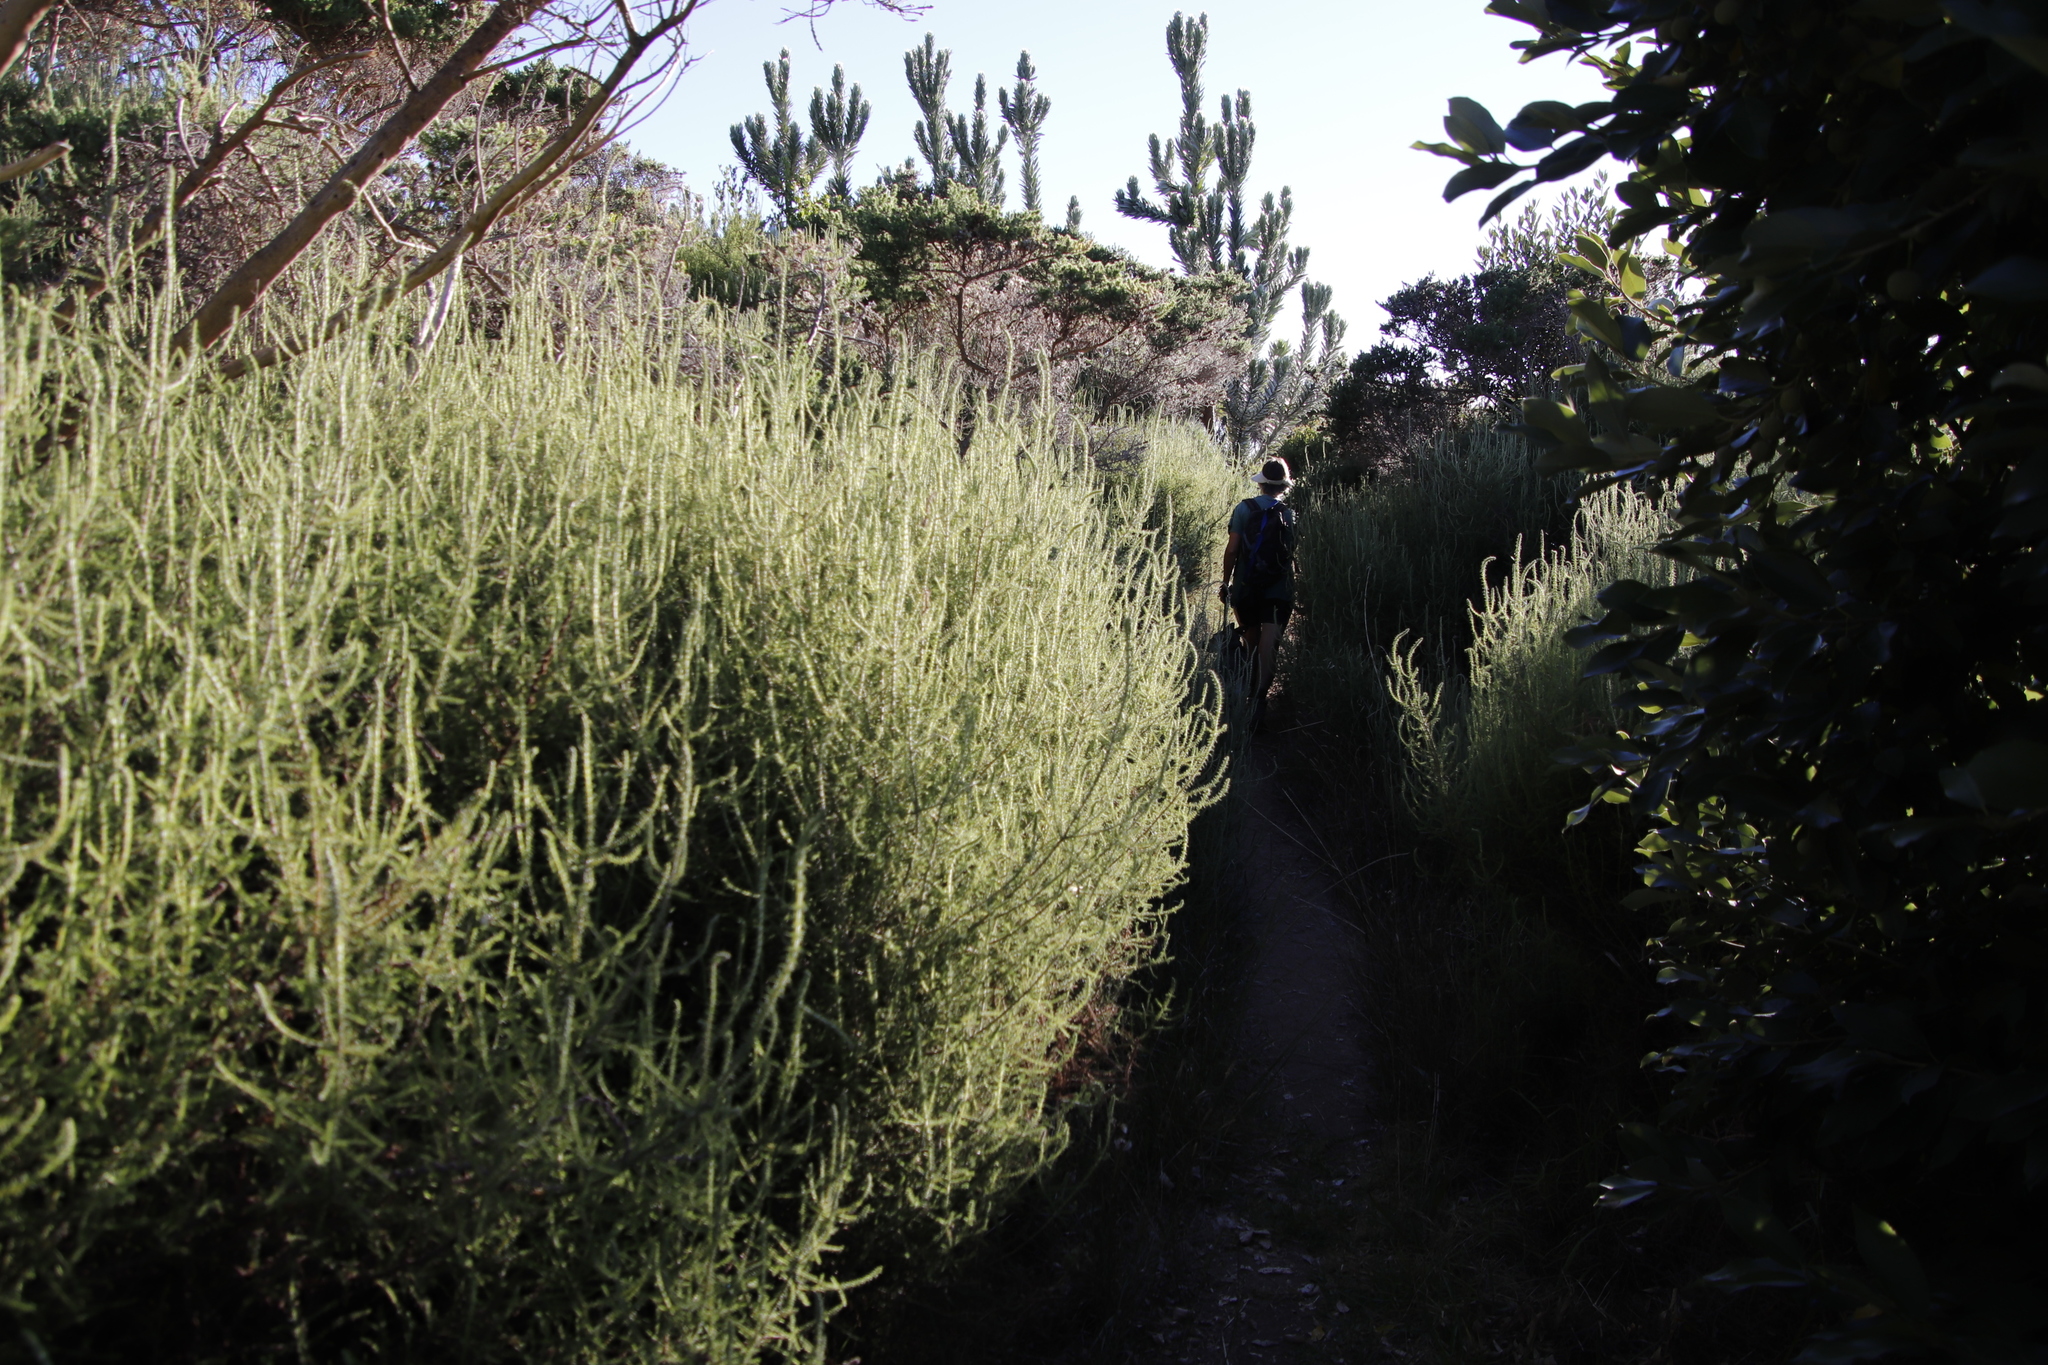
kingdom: Plantae
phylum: Tracheophyta
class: Magnoliopsida
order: Asterales
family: Asteraceae
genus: Seriphium
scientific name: Seriphium cinereum
